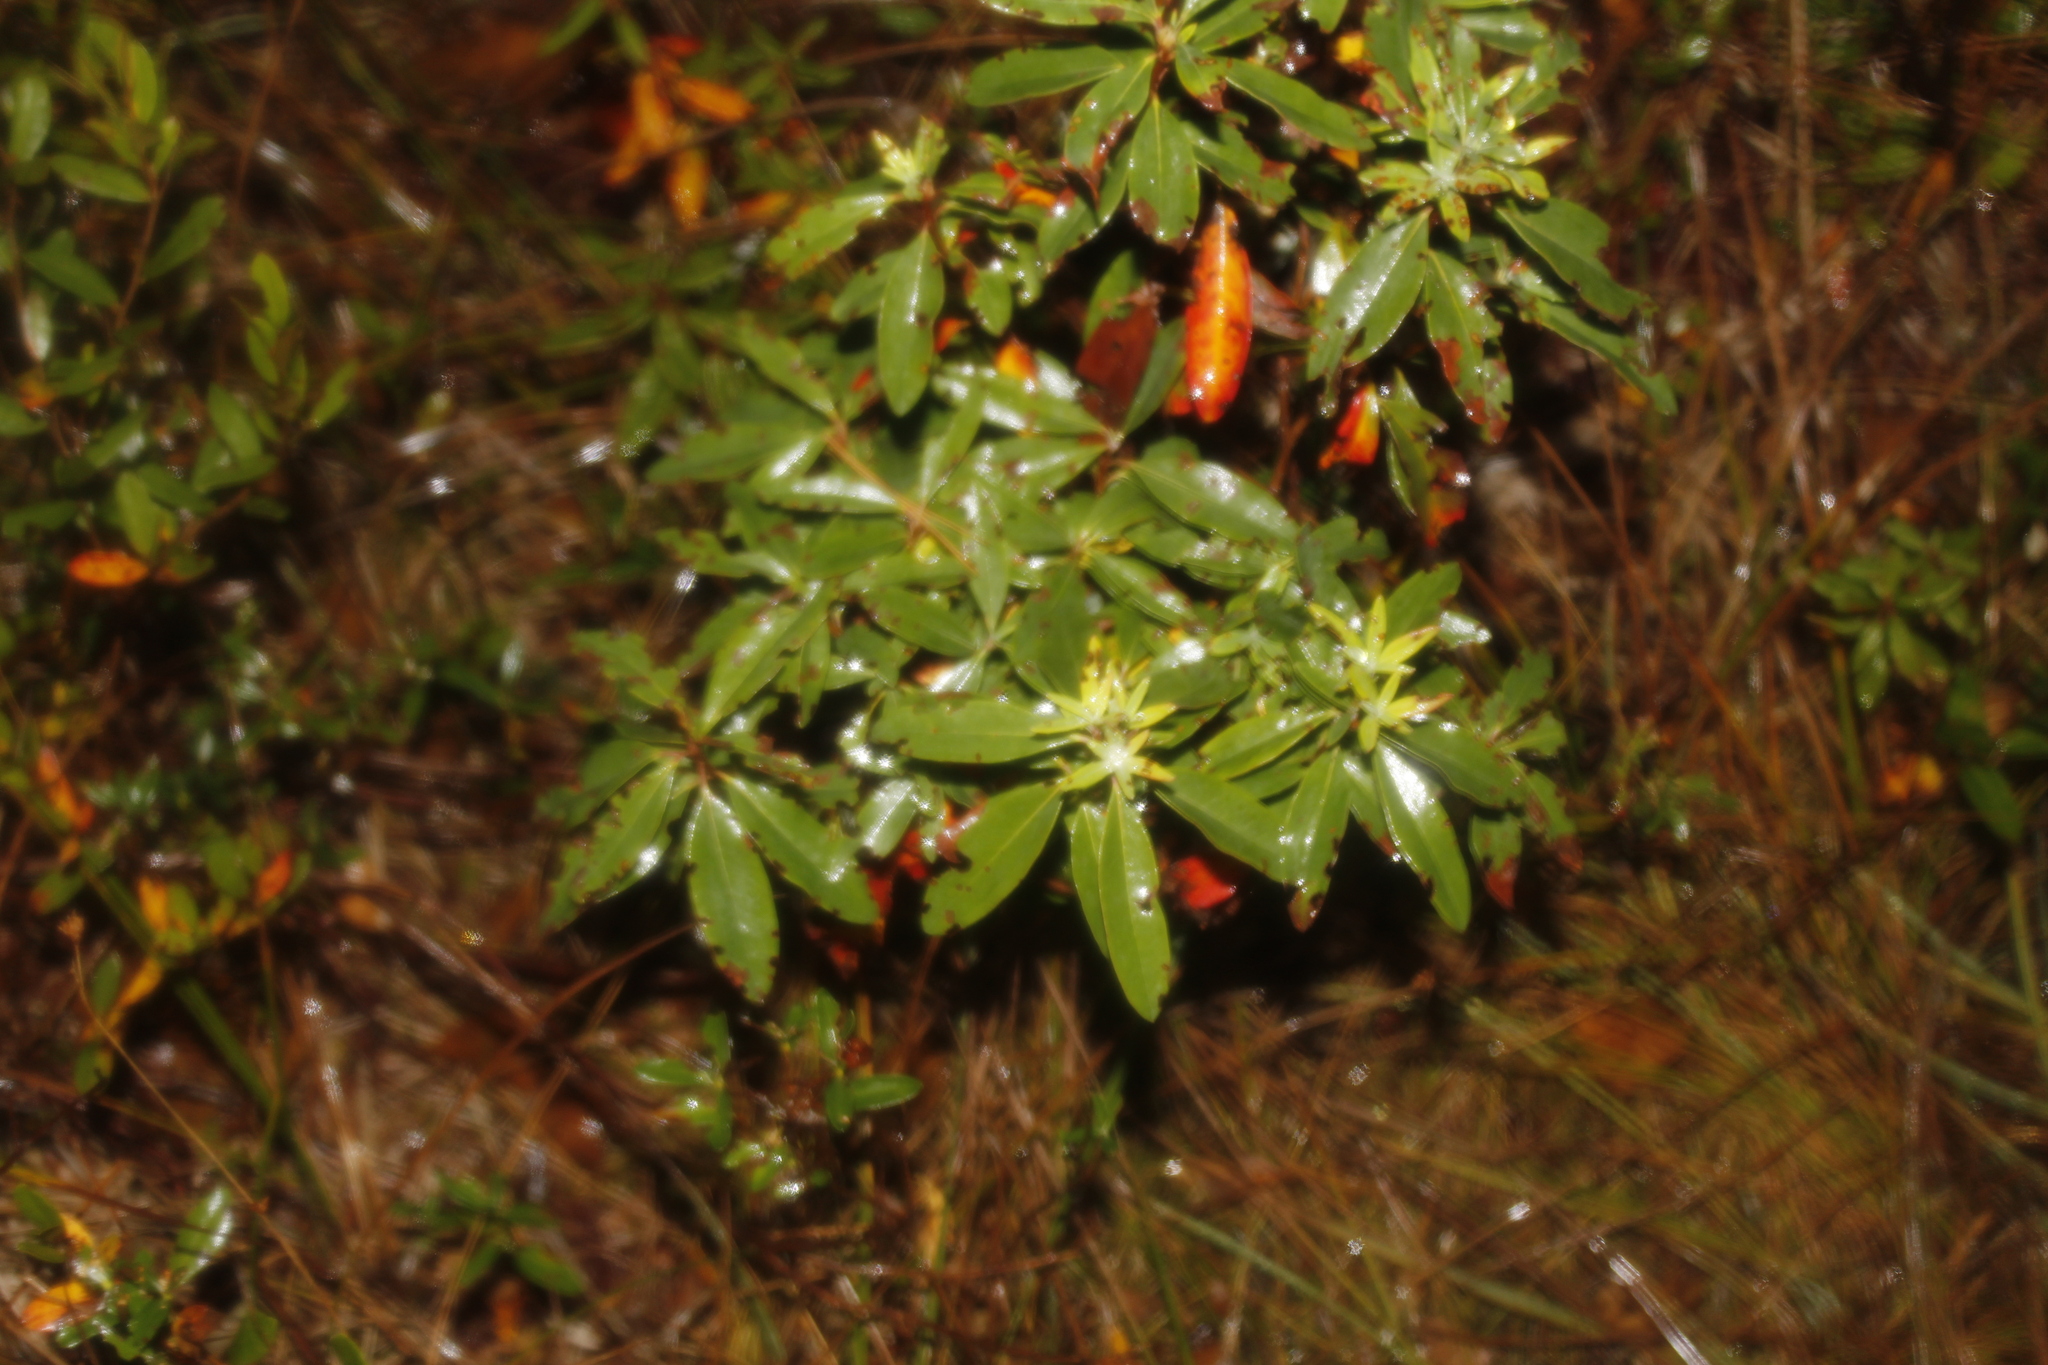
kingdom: Plantae
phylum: Tracheophyta
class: Magnoliopsida
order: Ericales
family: Ericaceae
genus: Kalmia
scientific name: Kalmia angustifolia
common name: Sheep-laurel
